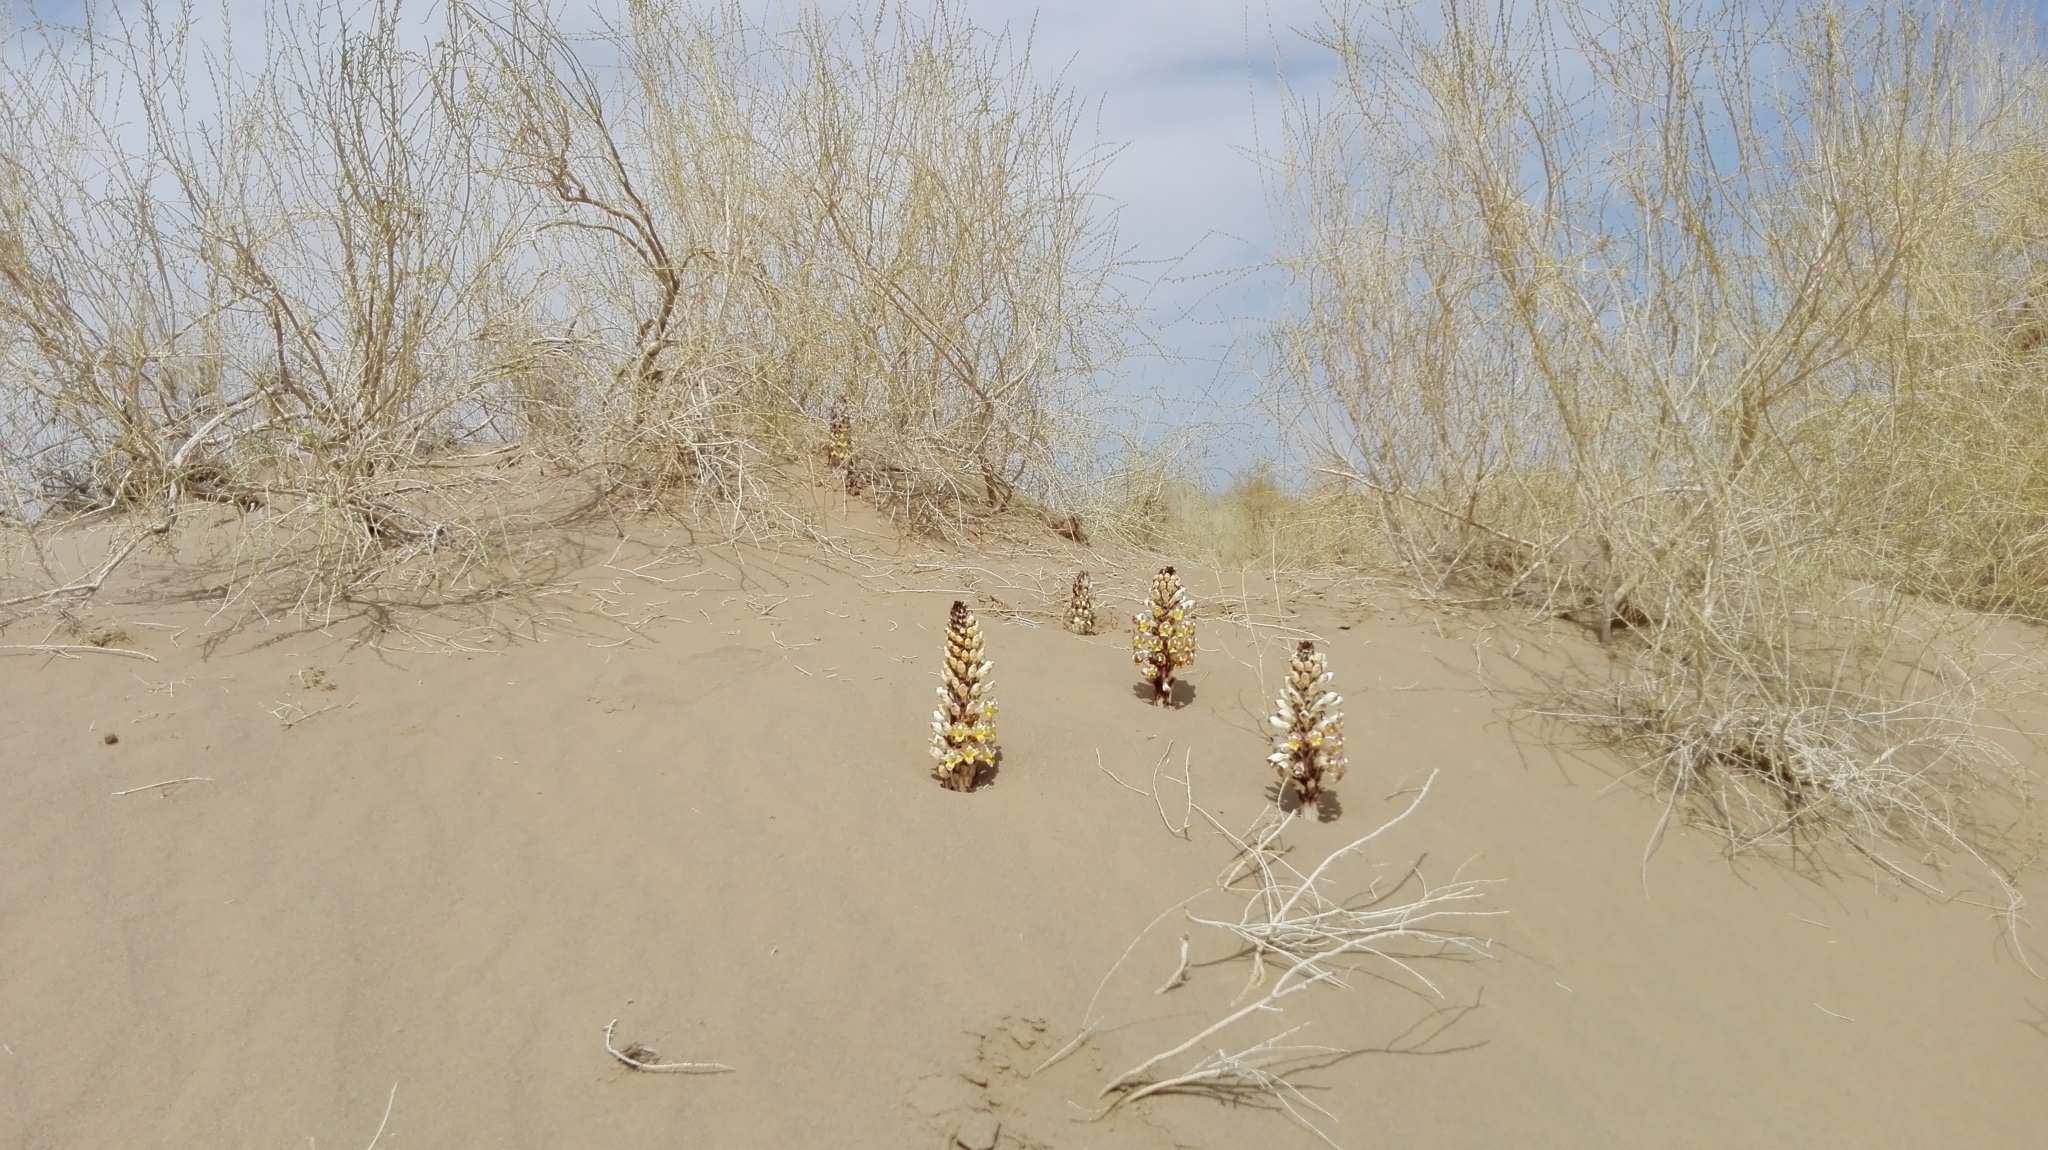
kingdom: Plantae
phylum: Tracheophyta
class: Magnoliopsida
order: Lamiales
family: Orobanchaceae
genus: Cistanche
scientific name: Cistanche tubulosa
